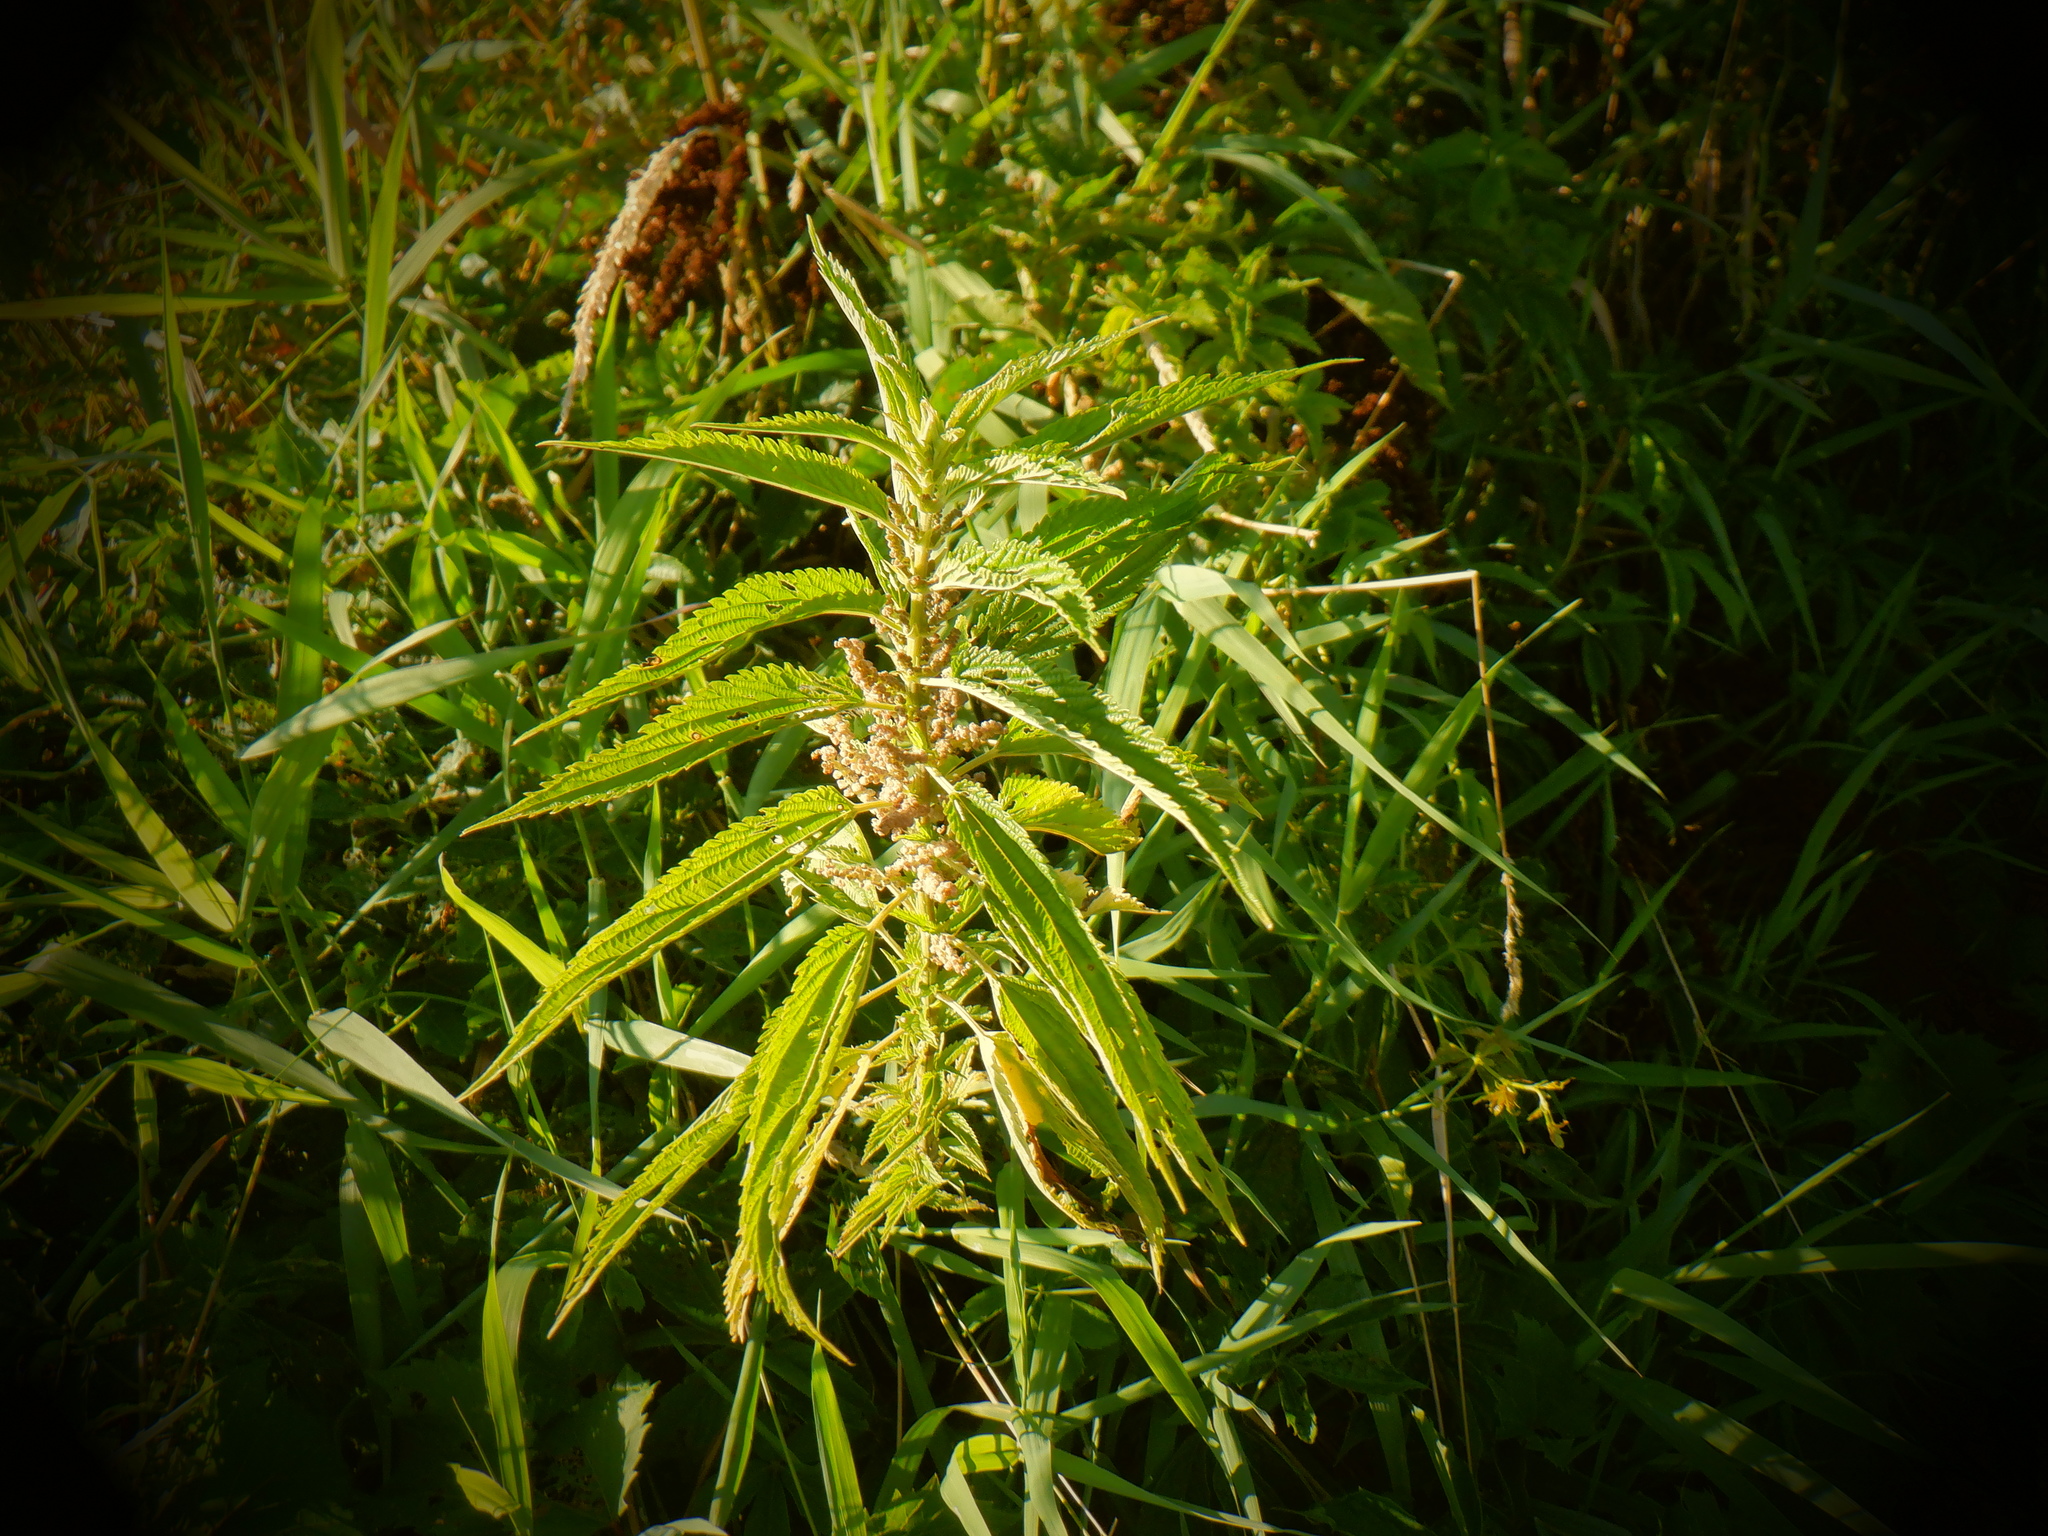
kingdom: Plantae
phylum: Tracheophyta
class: Magnoliopsida
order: Rosales
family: Urticaceae
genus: Urtica
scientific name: Urtica gracilis
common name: Slender stinging nettle
